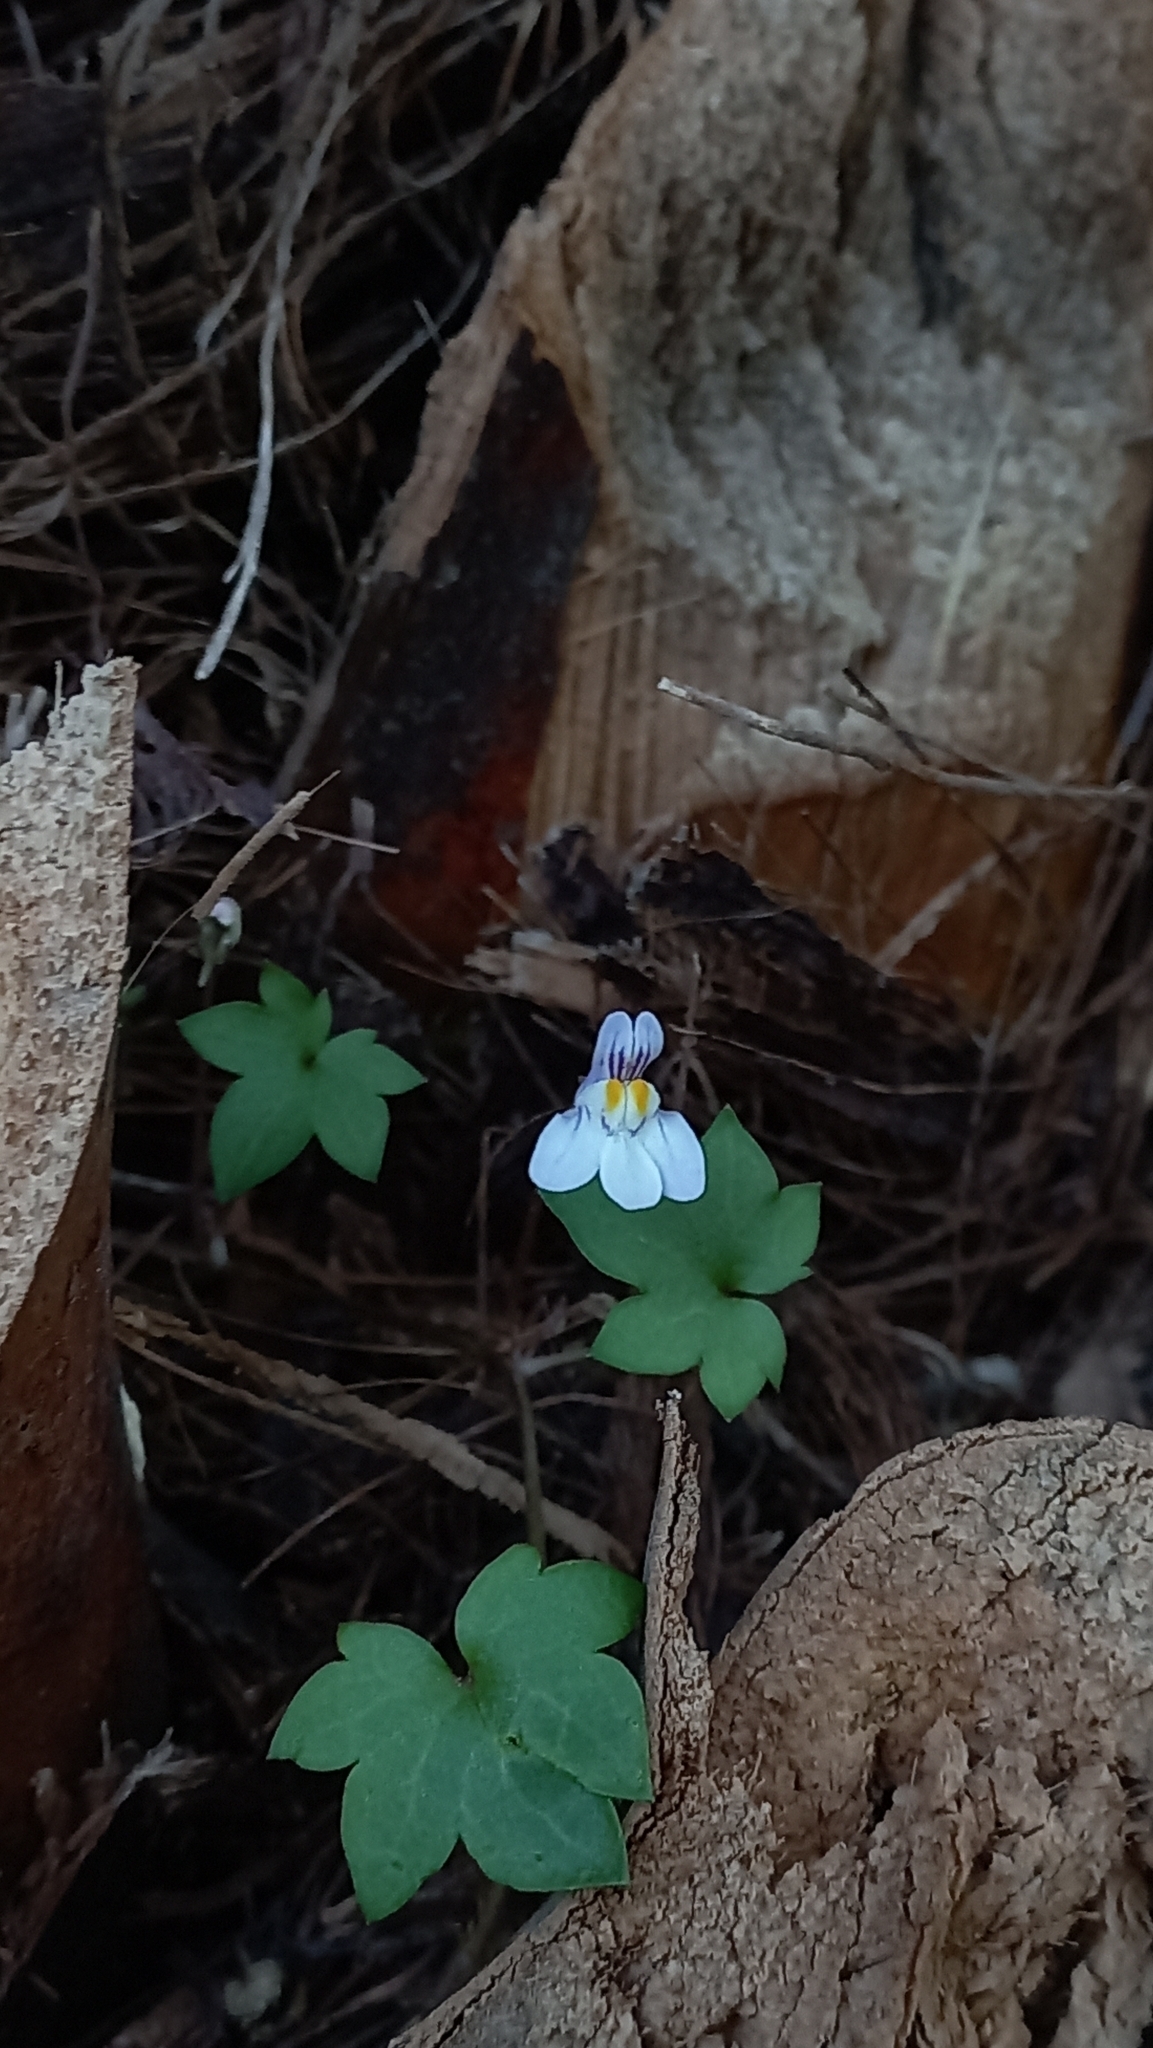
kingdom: Plantae
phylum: Tracheophyta
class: Magnoliopsida
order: Lamiales
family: Plantaginaceae
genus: Cymbalaria
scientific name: Cymbalaria muralis
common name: Ivy-leaved toadflax
